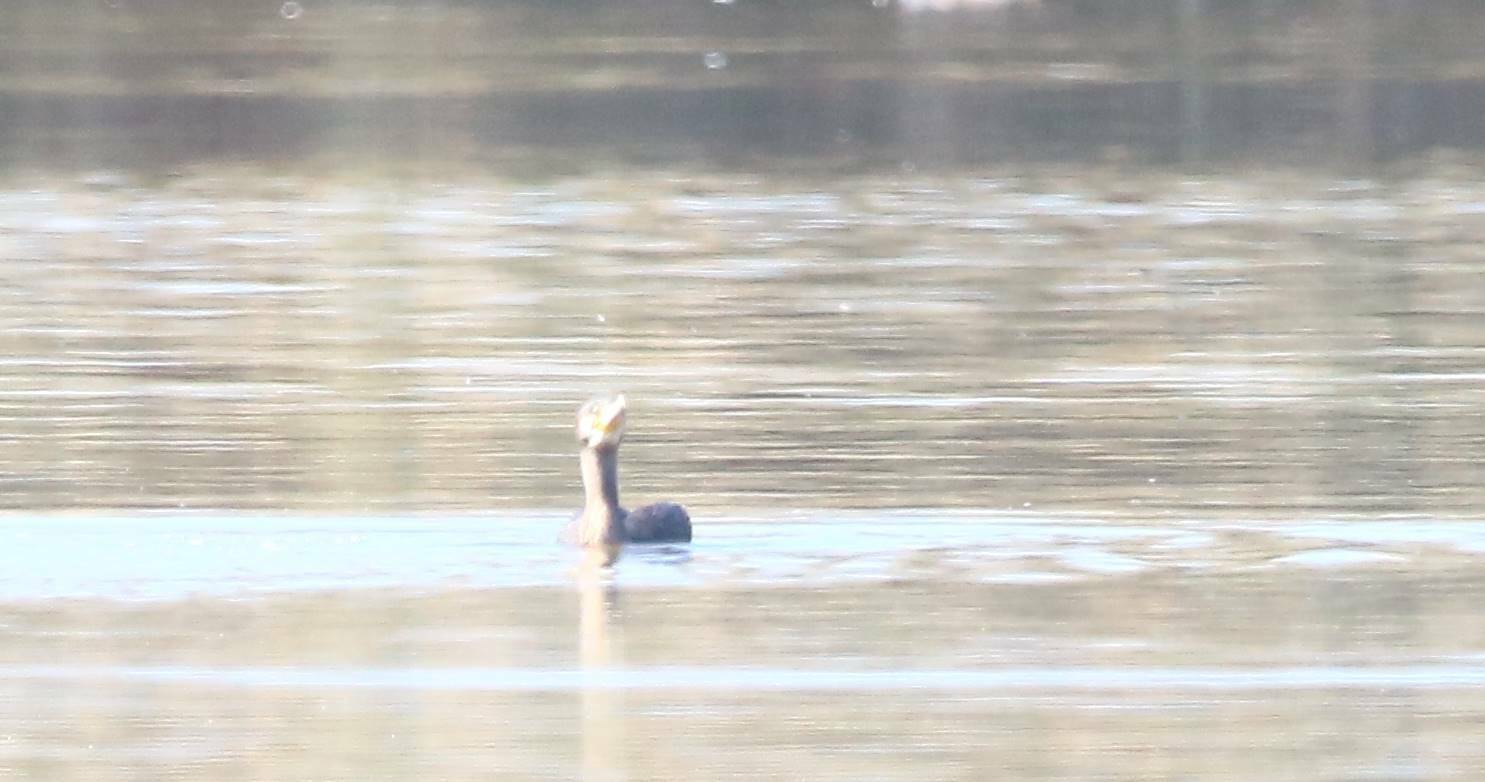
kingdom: Animalia
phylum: Chordata
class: Aves
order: Suliformes
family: Phalacrocoracidae
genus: Phalacrocorax
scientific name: Phalacrocorax carbo
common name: Great cormorant
